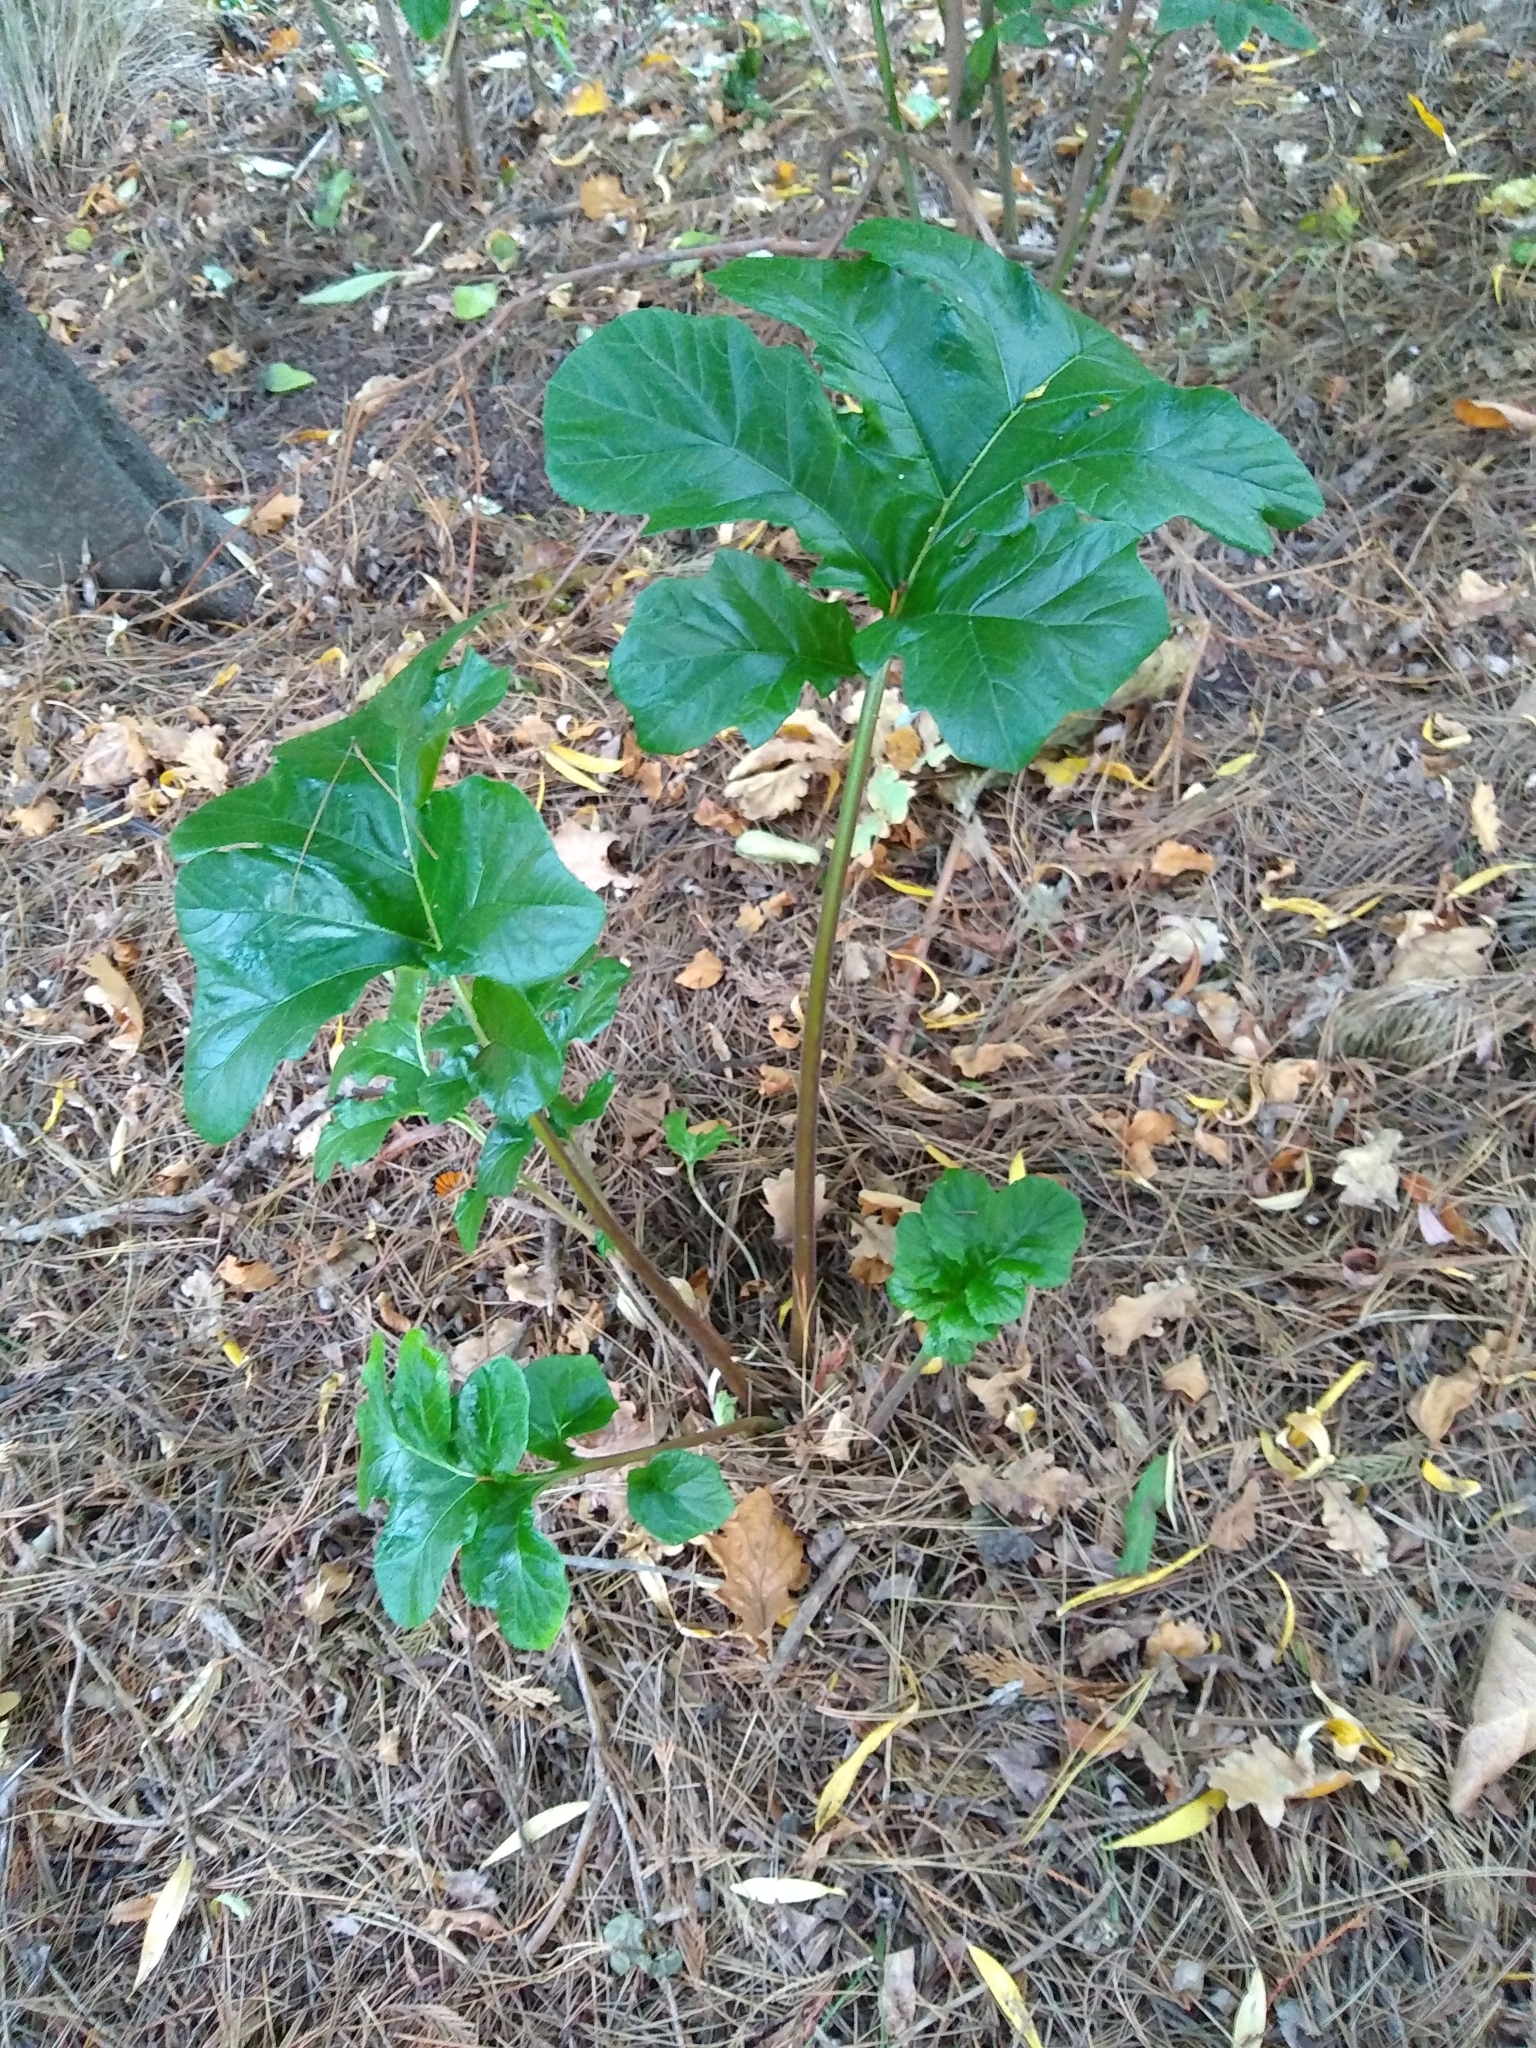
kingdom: Plantae
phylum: Tracheophyta
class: Magnoliopsida
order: Lamiales
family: Acanthaceae
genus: Acanthus
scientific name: Acanthus mollis
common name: Bear's-breech
